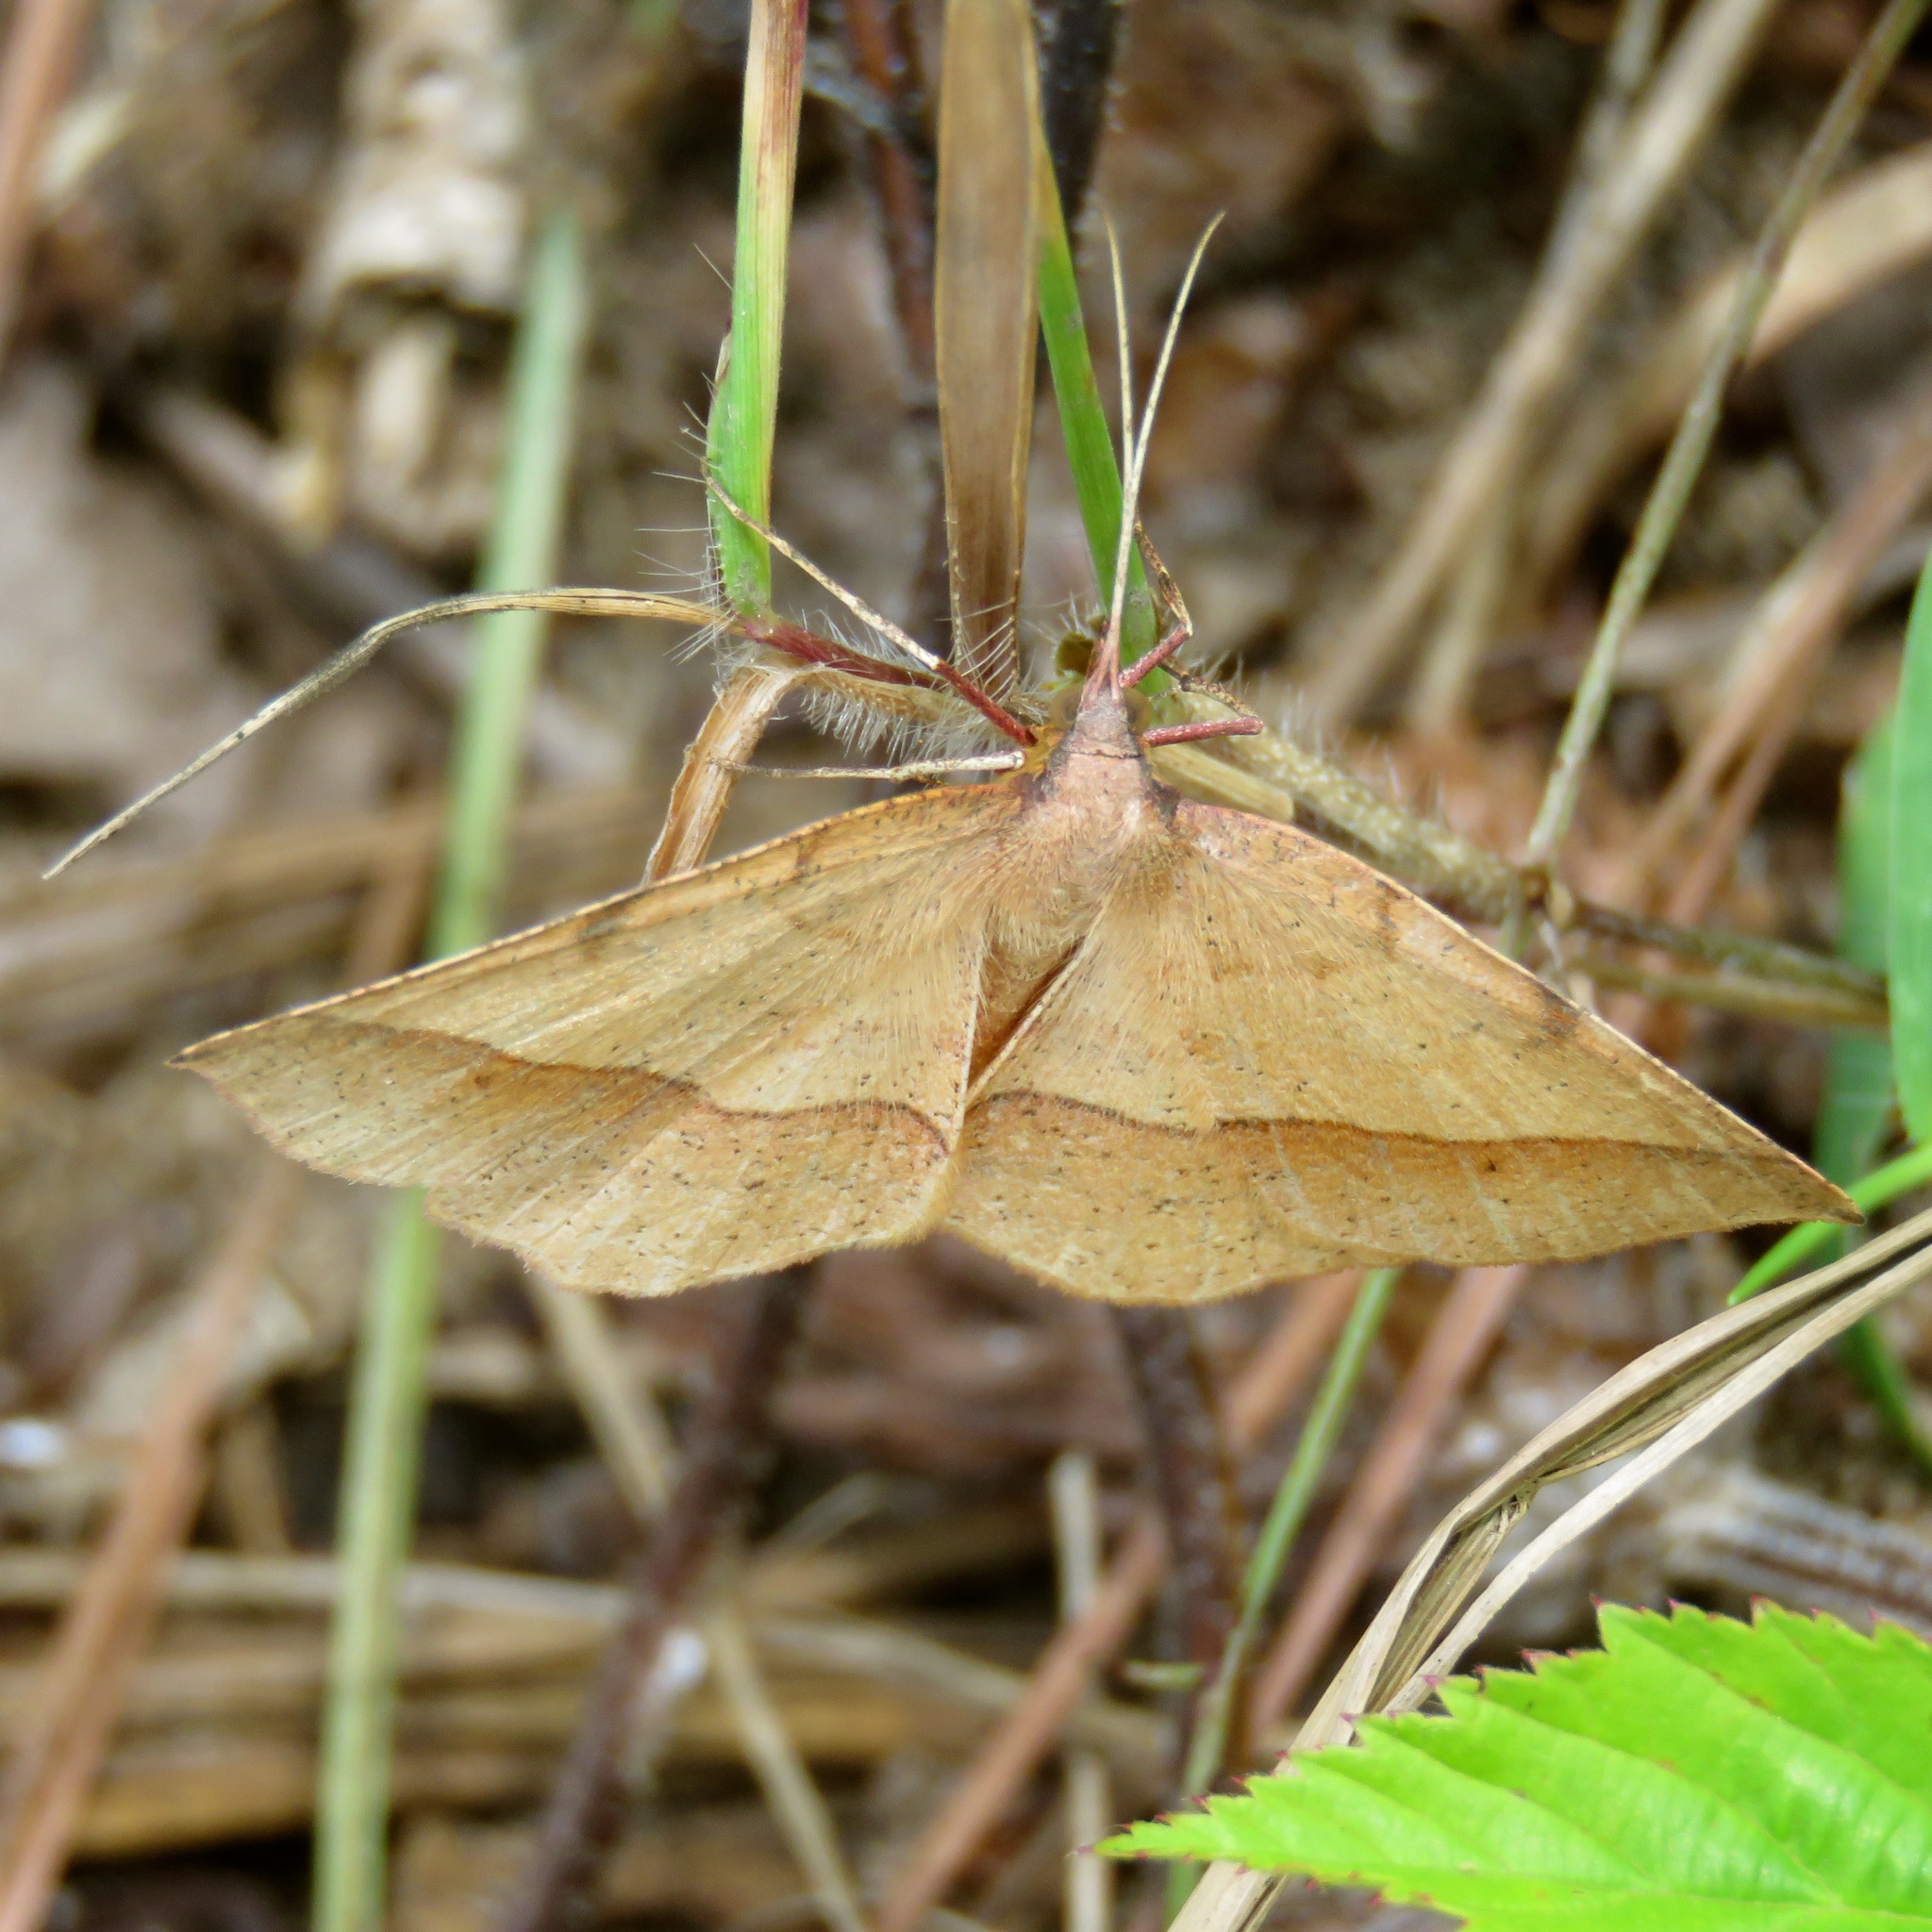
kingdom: Animalia
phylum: Arthropoda
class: Insecta
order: Lepidoptera
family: Geometridae
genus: Erastria
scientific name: Erastria cruentaria
